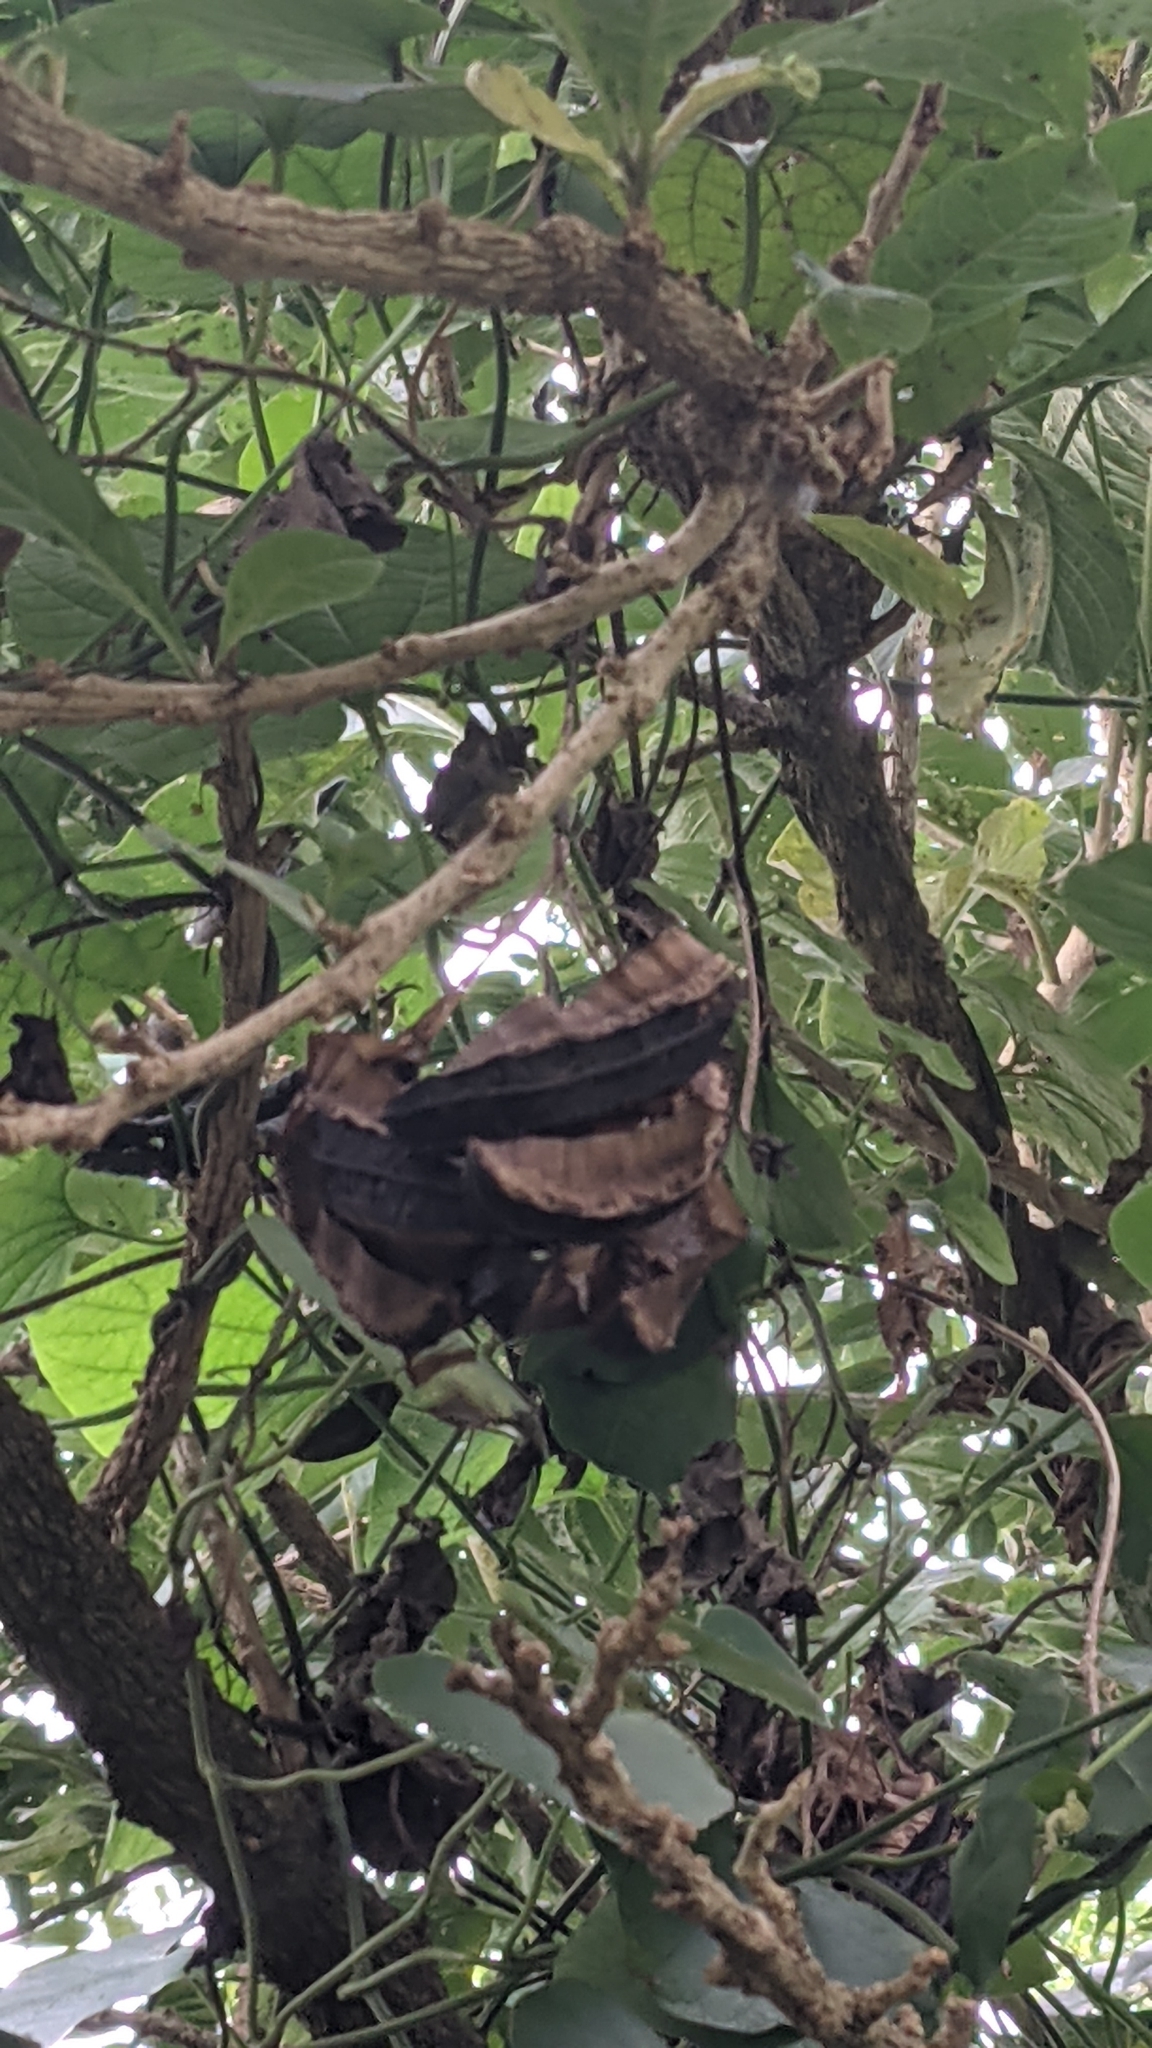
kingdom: Plantae
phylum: Tracheophyta
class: Magnoliopsida
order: Piperales
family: Aristolochiaceae
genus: Aristolochia
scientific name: Aristolochia grandiflora
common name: Pelicanflower
